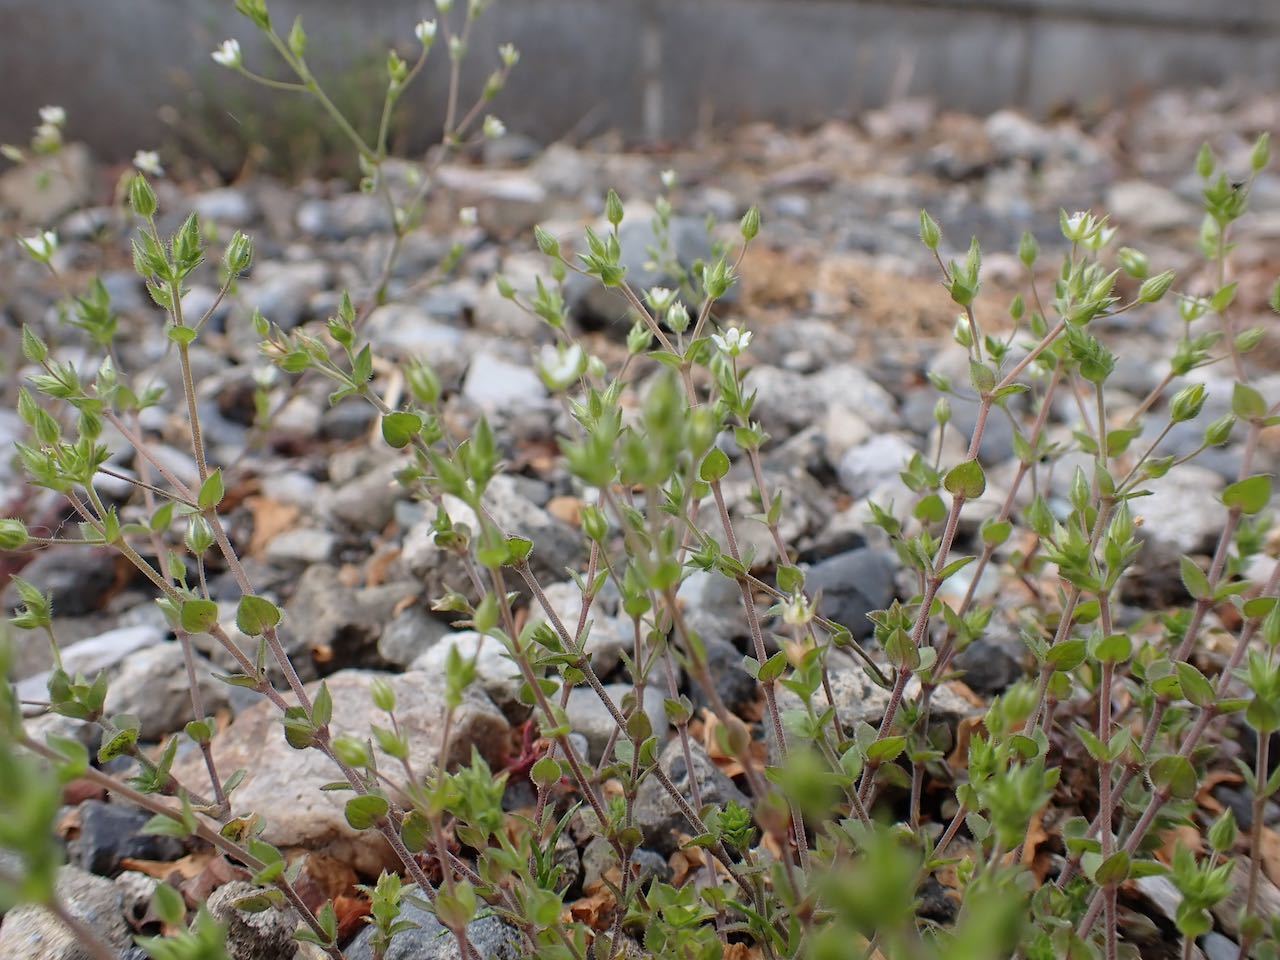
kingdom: Plantae
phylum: Tracheophyta
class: Magnoliopsida
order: Caryophyllales
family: Caryophyllaceae
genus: Arenaria
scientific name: Arenaria serpyllifolia
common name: Thyme-leaved sandwort
